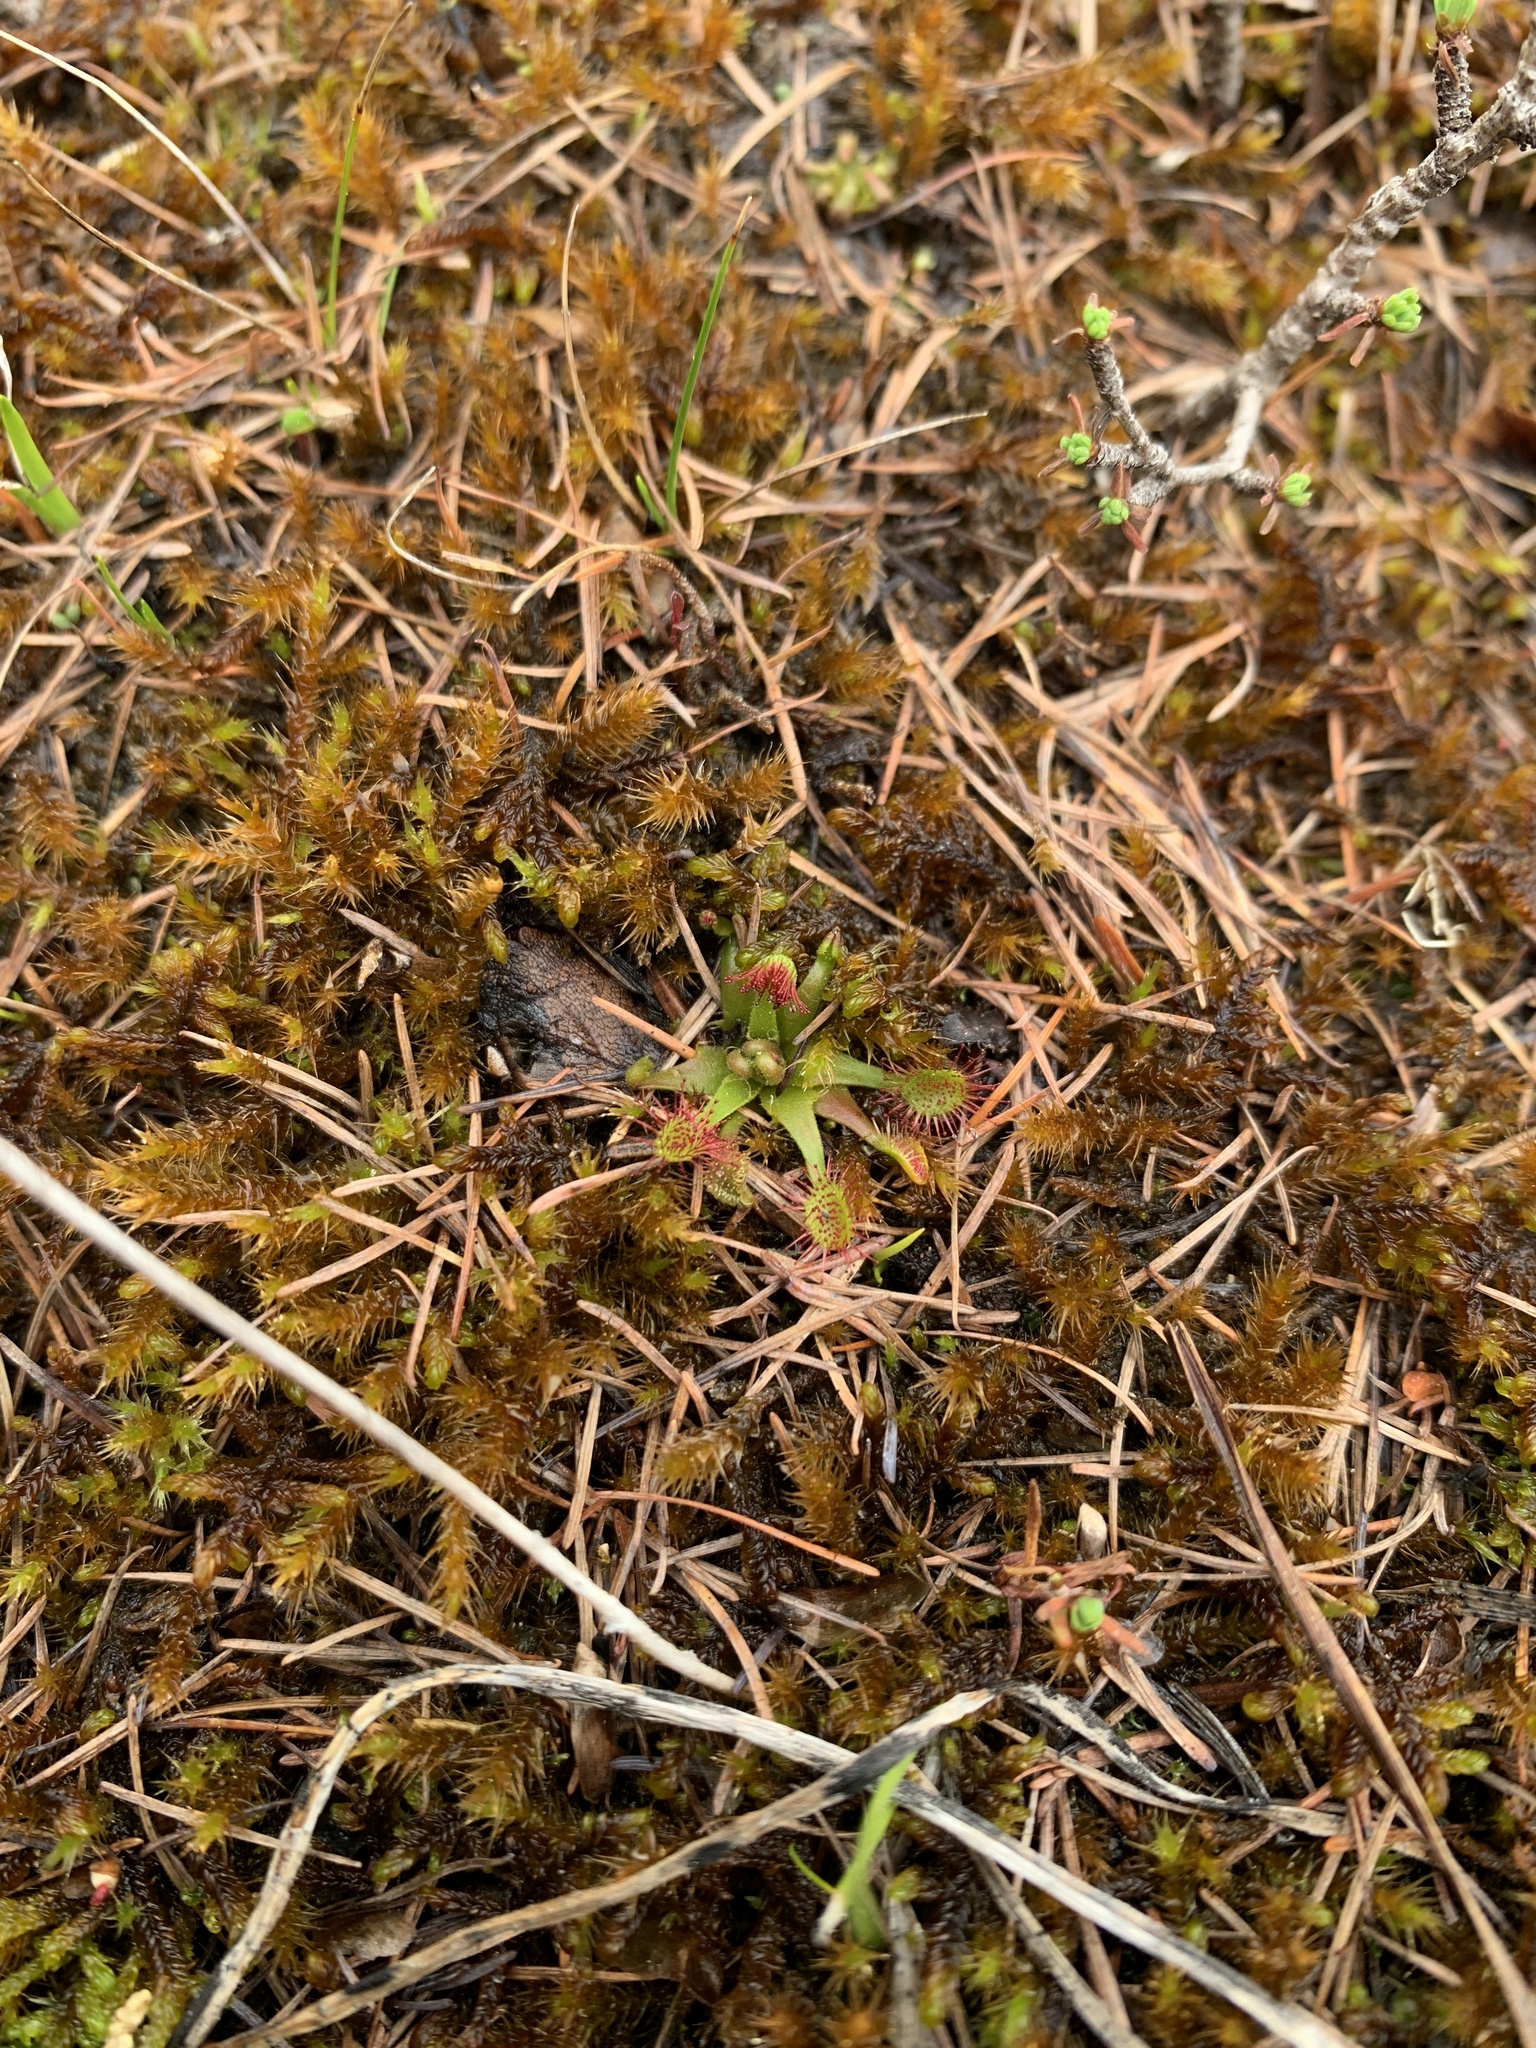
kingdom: Plantae
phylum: Tracheophyta
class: Magnoliopsida
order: Caryophyllales
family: Droseraceae
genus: Drosera
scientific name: Drosera rotundifolia
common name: Round-leaved sundew
